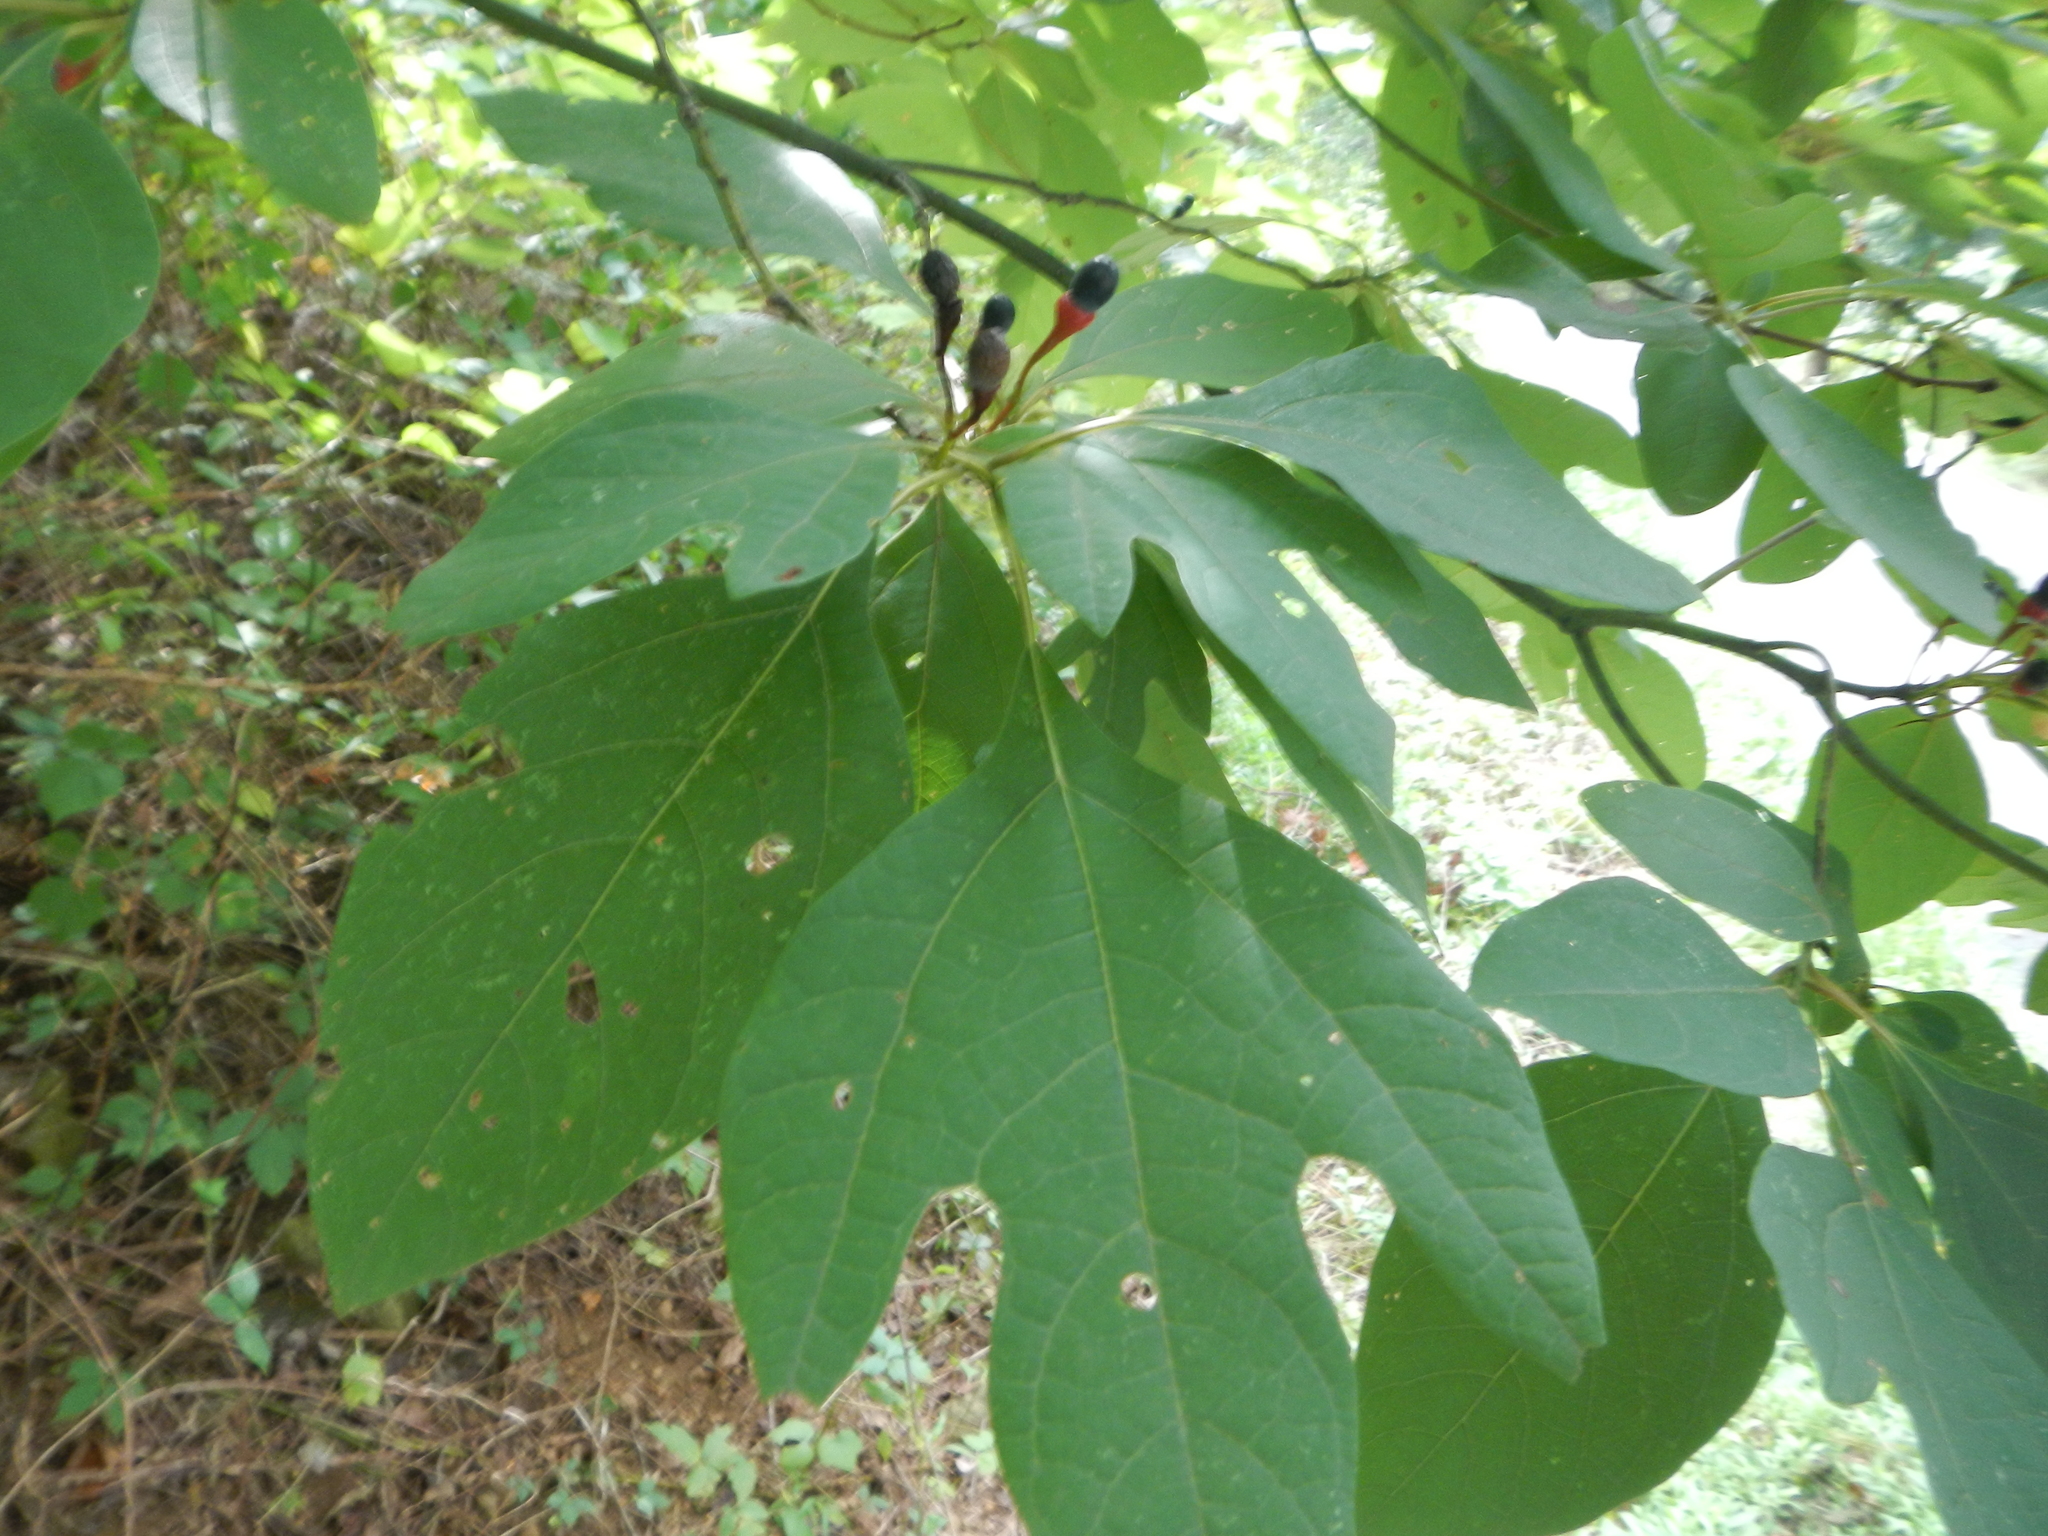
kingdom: Plantae
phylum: Tracheophyta
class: Magnoliopsida
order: Laurales
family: Lauraceae
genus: Sassafras
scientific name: Sassafras albidum
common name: Sassafras
